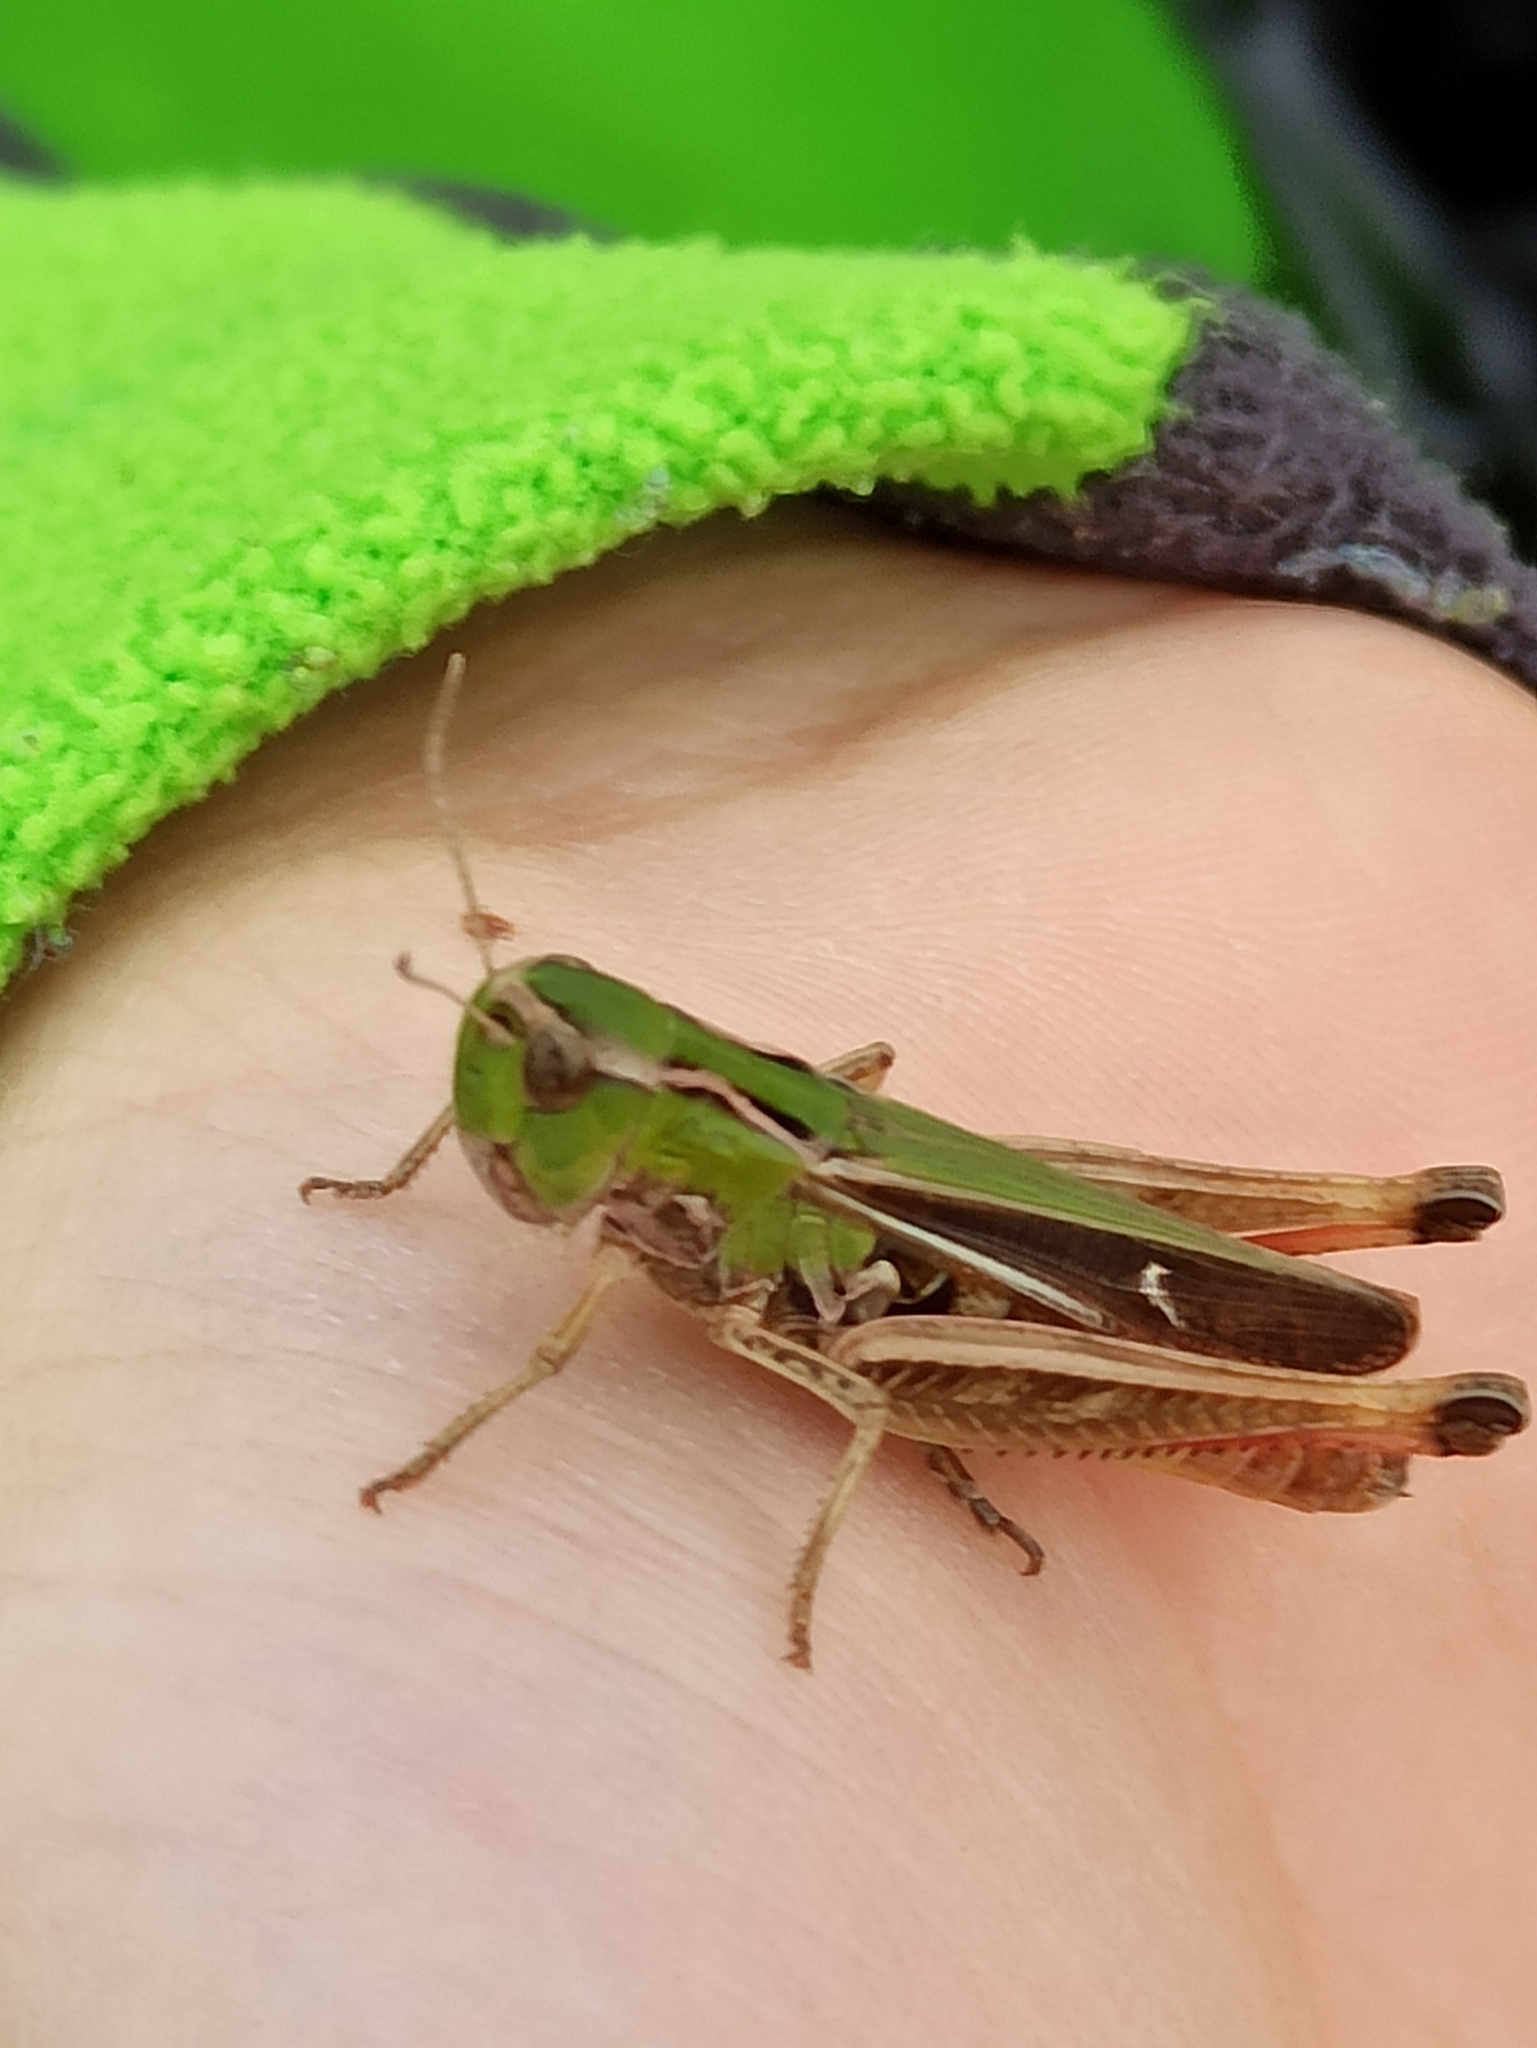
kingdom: Animalia
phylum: Arthropoda
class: Insecta
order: Orthoptera
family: Acrididae
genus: Stenobothrus
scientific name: Stenobothrus lineatus
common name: Stripe-winged grasshopper
